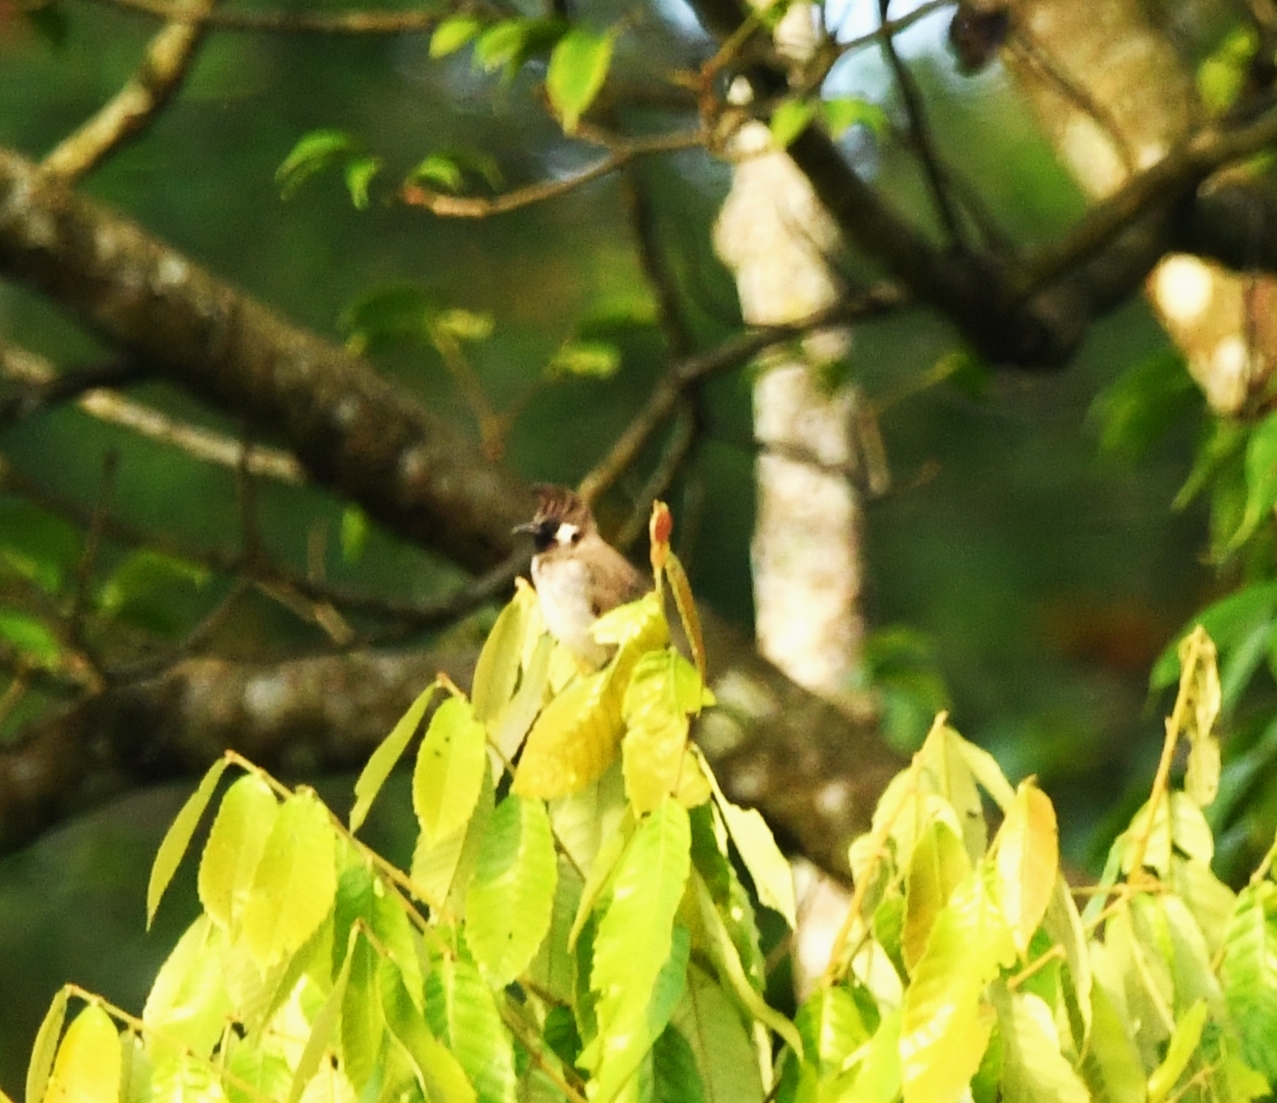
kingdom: Animalia
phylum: Chordata
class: Aves
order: Passeriformes
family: Pycnonotidae
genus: Pycnonotus
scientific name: Pycnonotus leucogenys
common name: Himalayan bulbul
